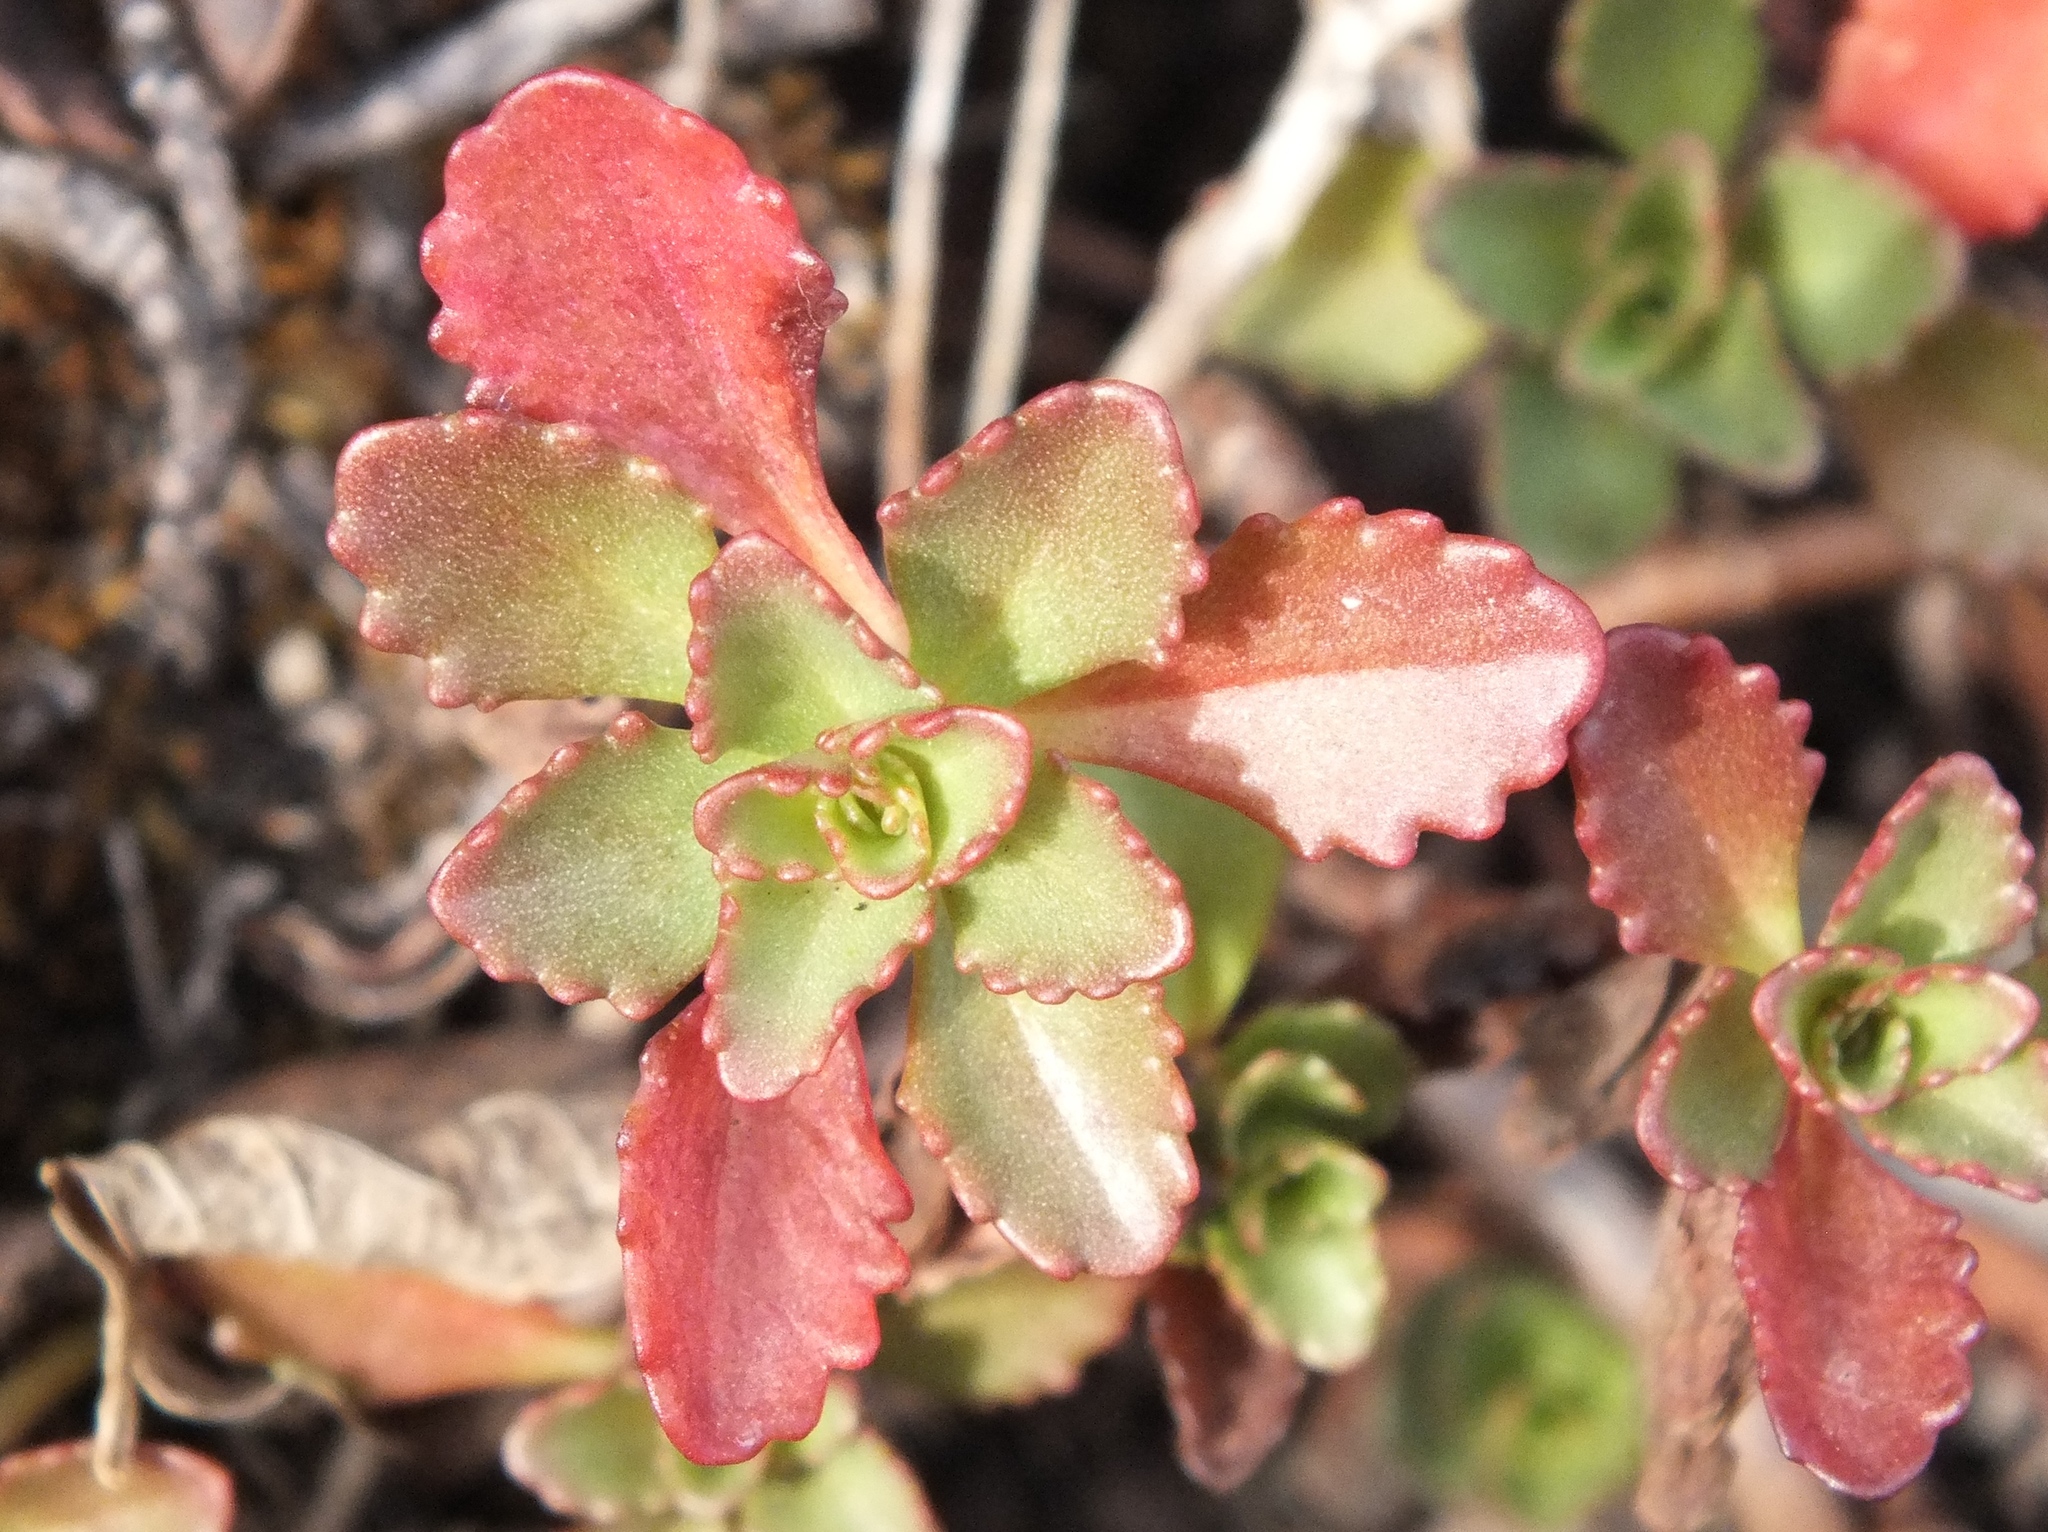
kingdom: Plantae
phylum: Tracheophyta
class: Magnoliopsida
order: Saxifragales
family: Crassulaceae
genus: Phedimus
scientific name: Phedimus hybridus
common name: Hybrid stonecrop
